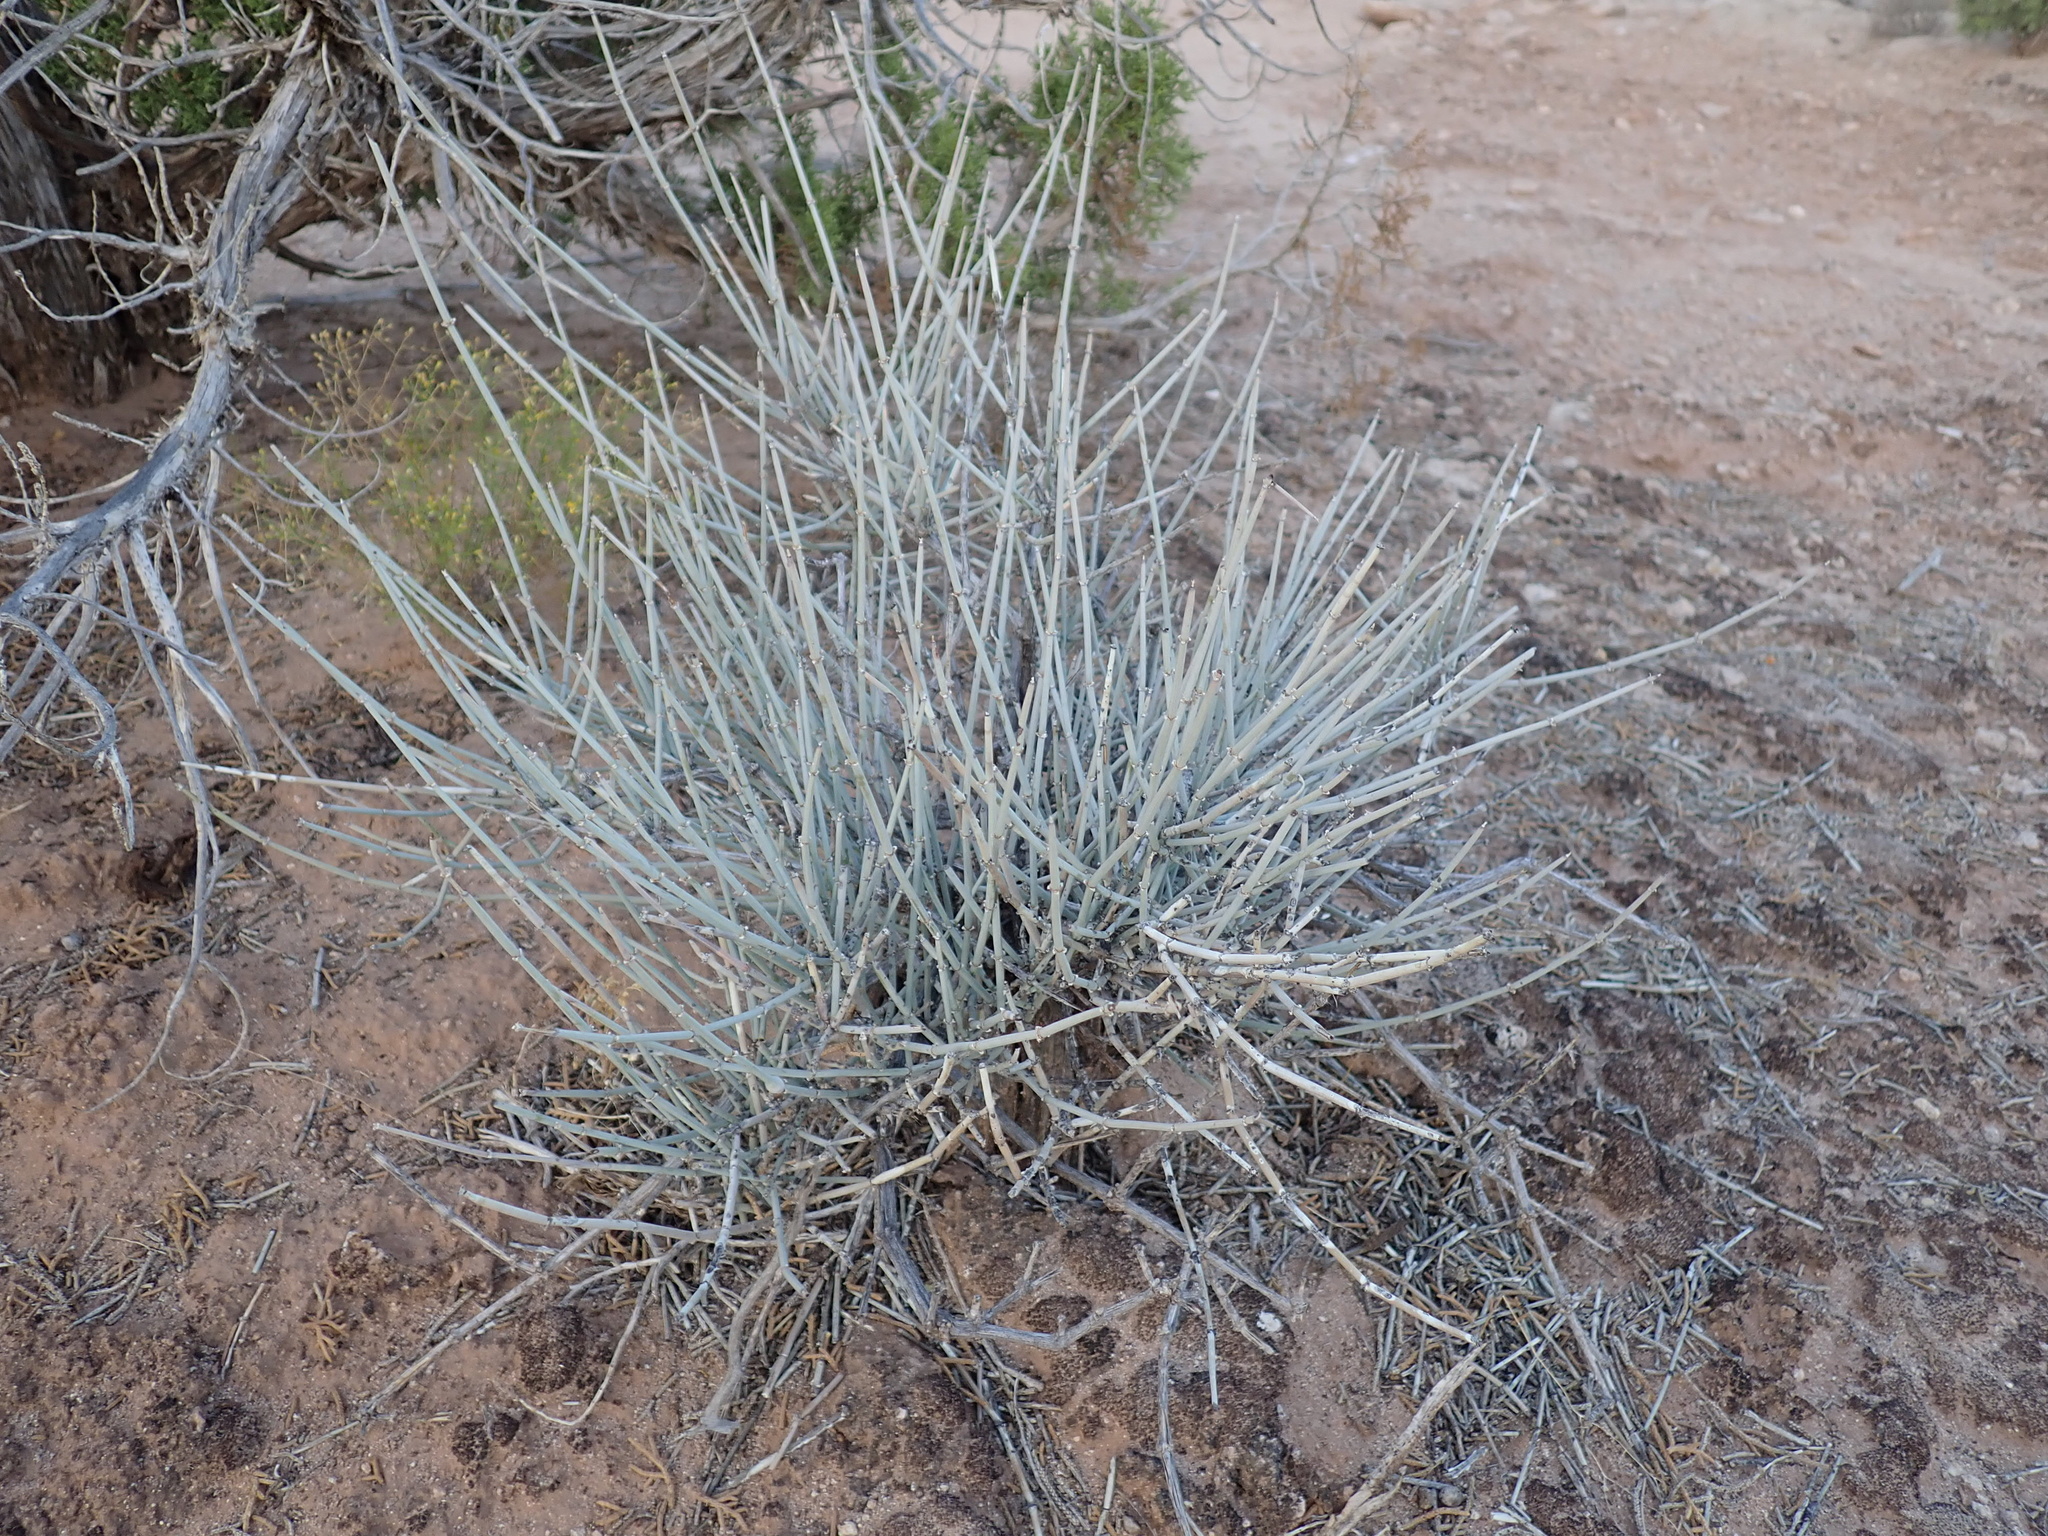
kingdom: Plantae
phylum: Tracheophyta
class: Gnetopsida
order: Ephedrales
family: Ephedraceae
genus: Ephedra
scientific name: Ephedra torreyana
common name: Torrey ephedra
